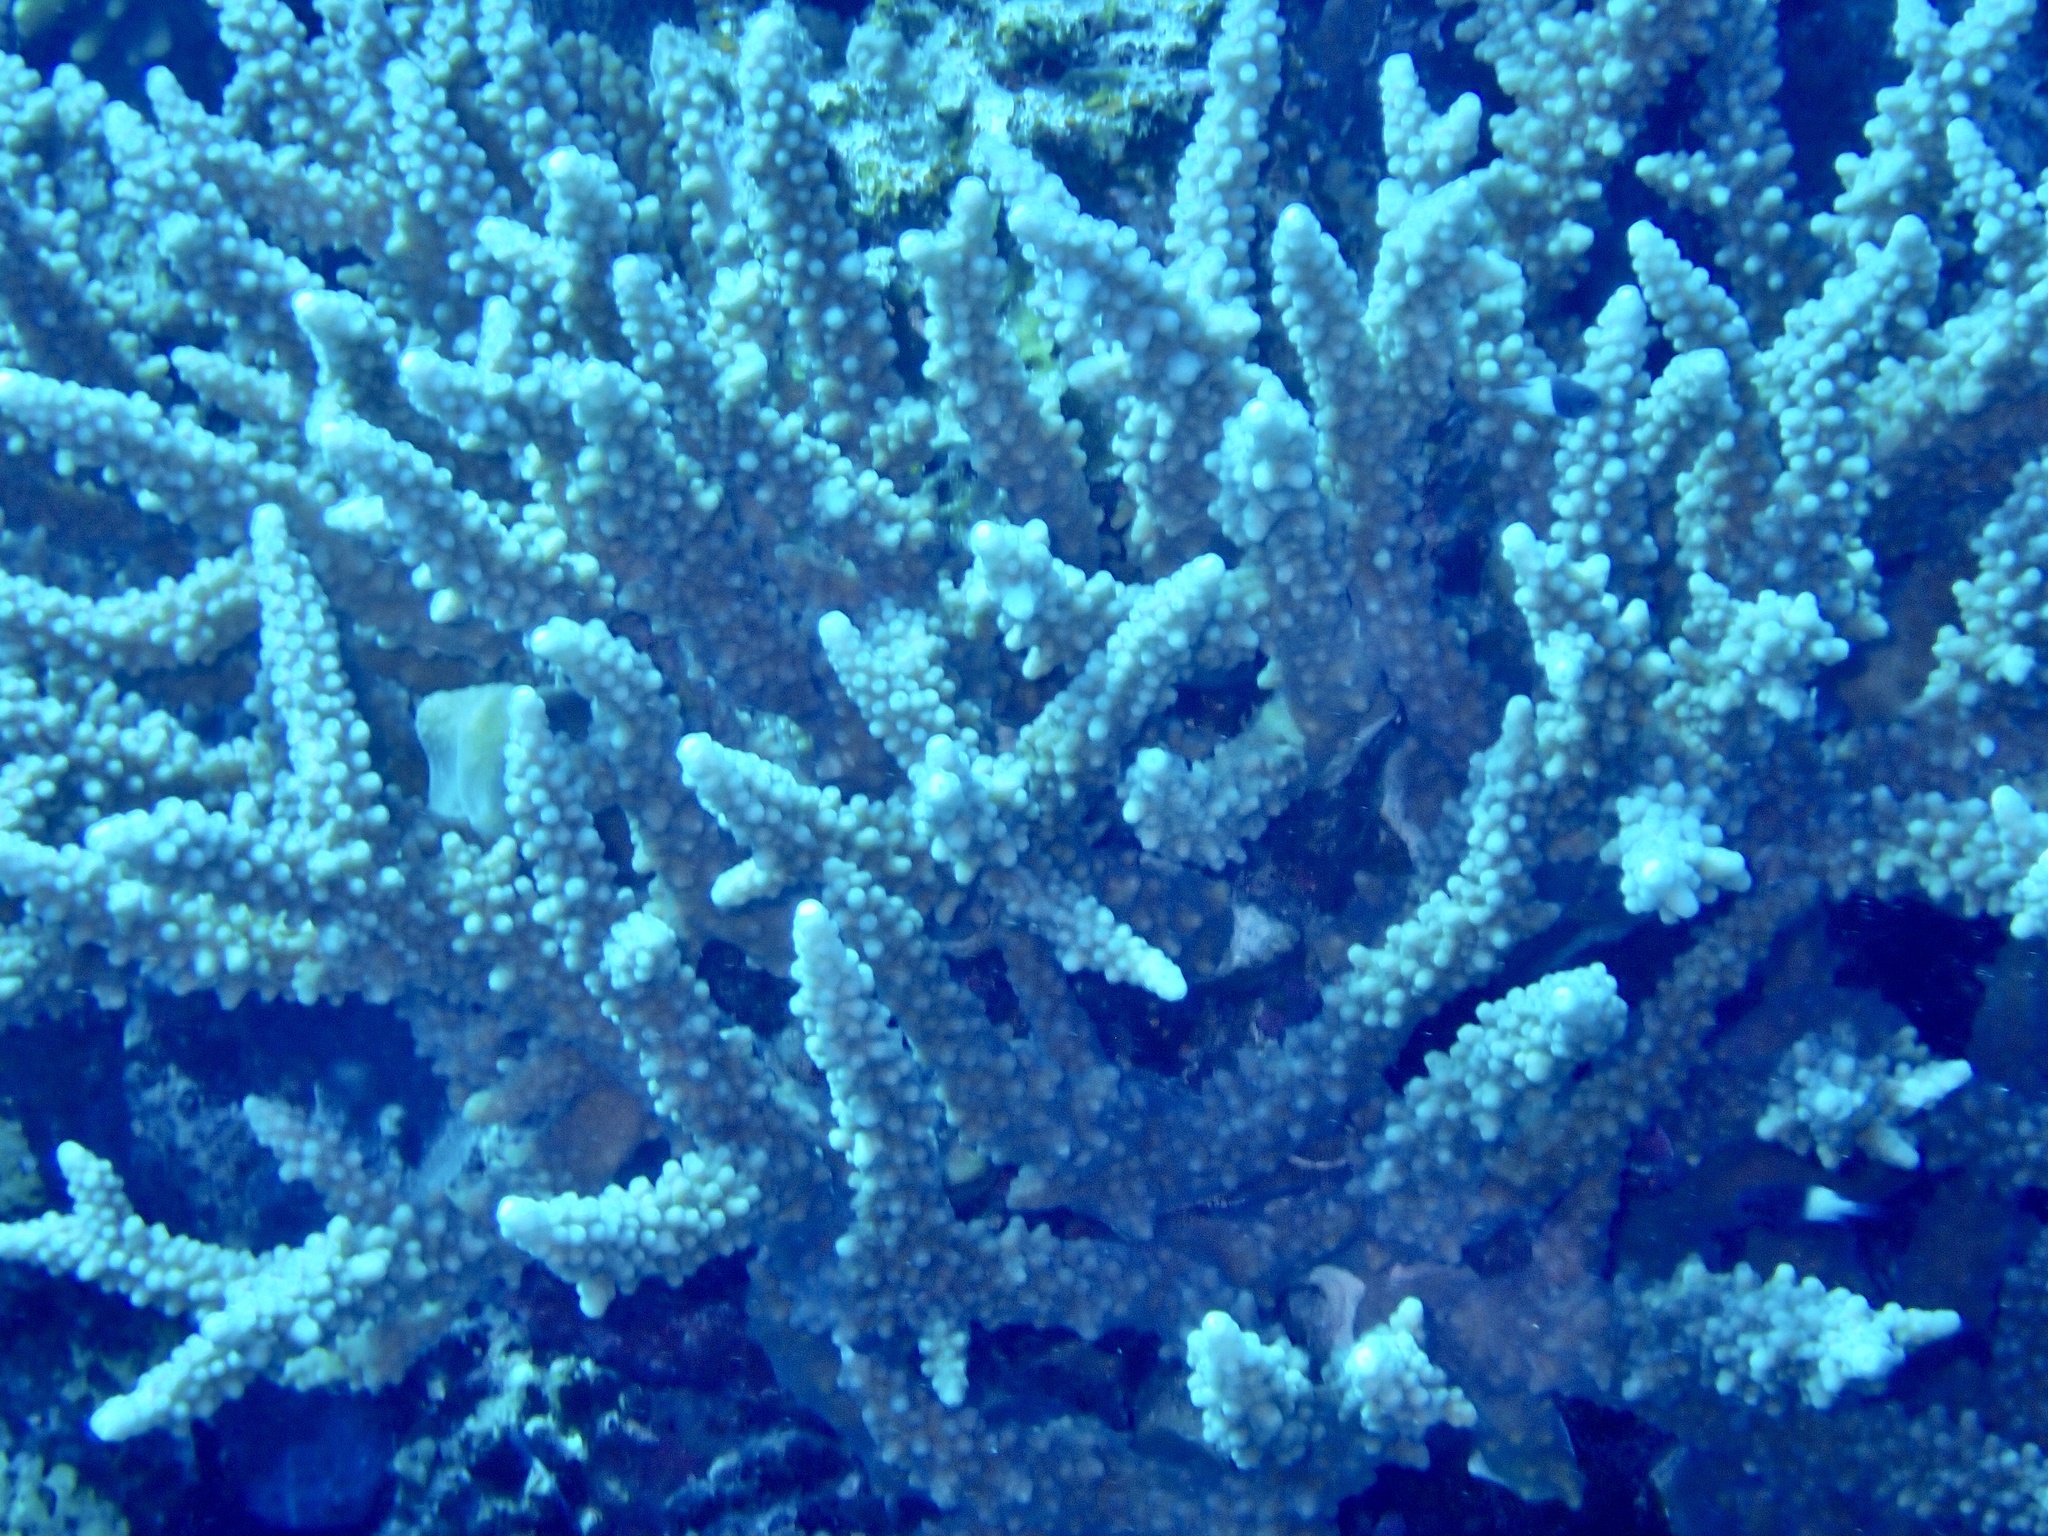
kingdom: Animalia
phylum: Cnidaria
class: Anthozoa
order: Scleractinia
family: Acroporidae
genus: Acropora
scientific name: Acropora hemprichii
